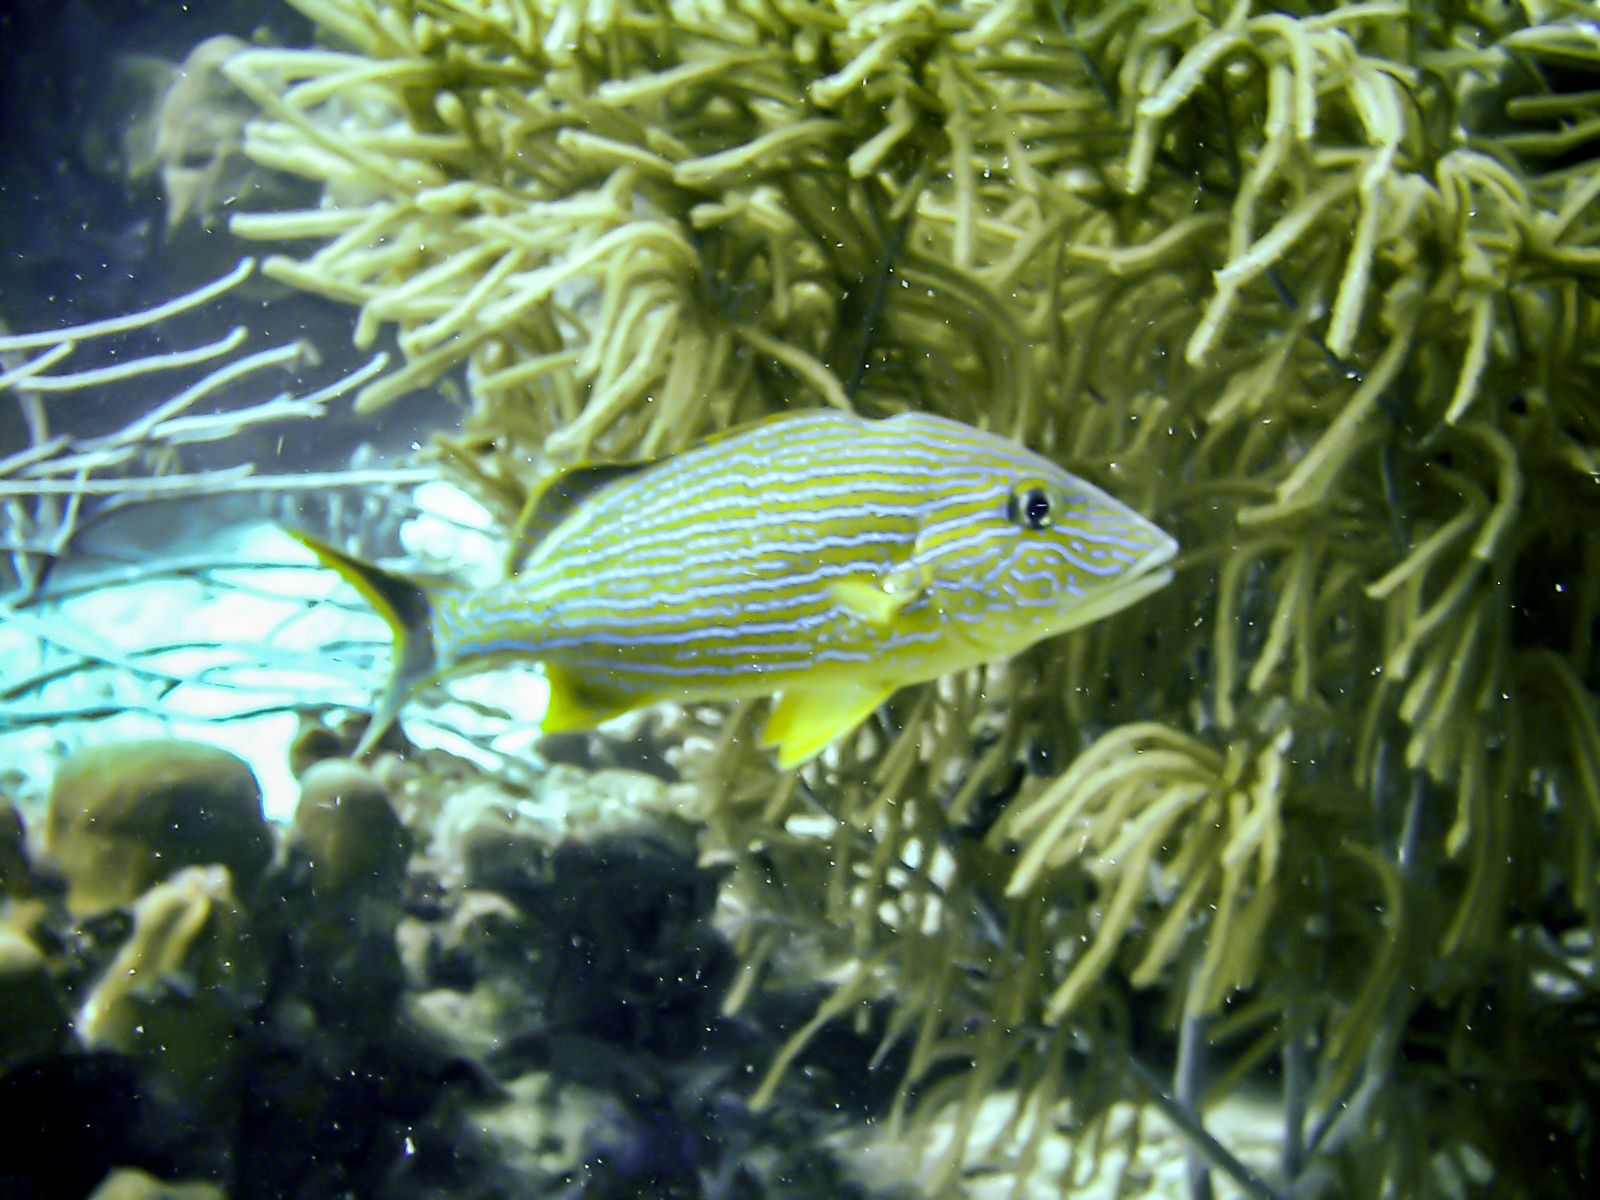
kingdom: Animalia
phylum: Chordata
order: Perciformes
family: Haemulidae
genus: Haemulon
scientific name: Haemulon sciurus
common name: Bluestriped grunt
